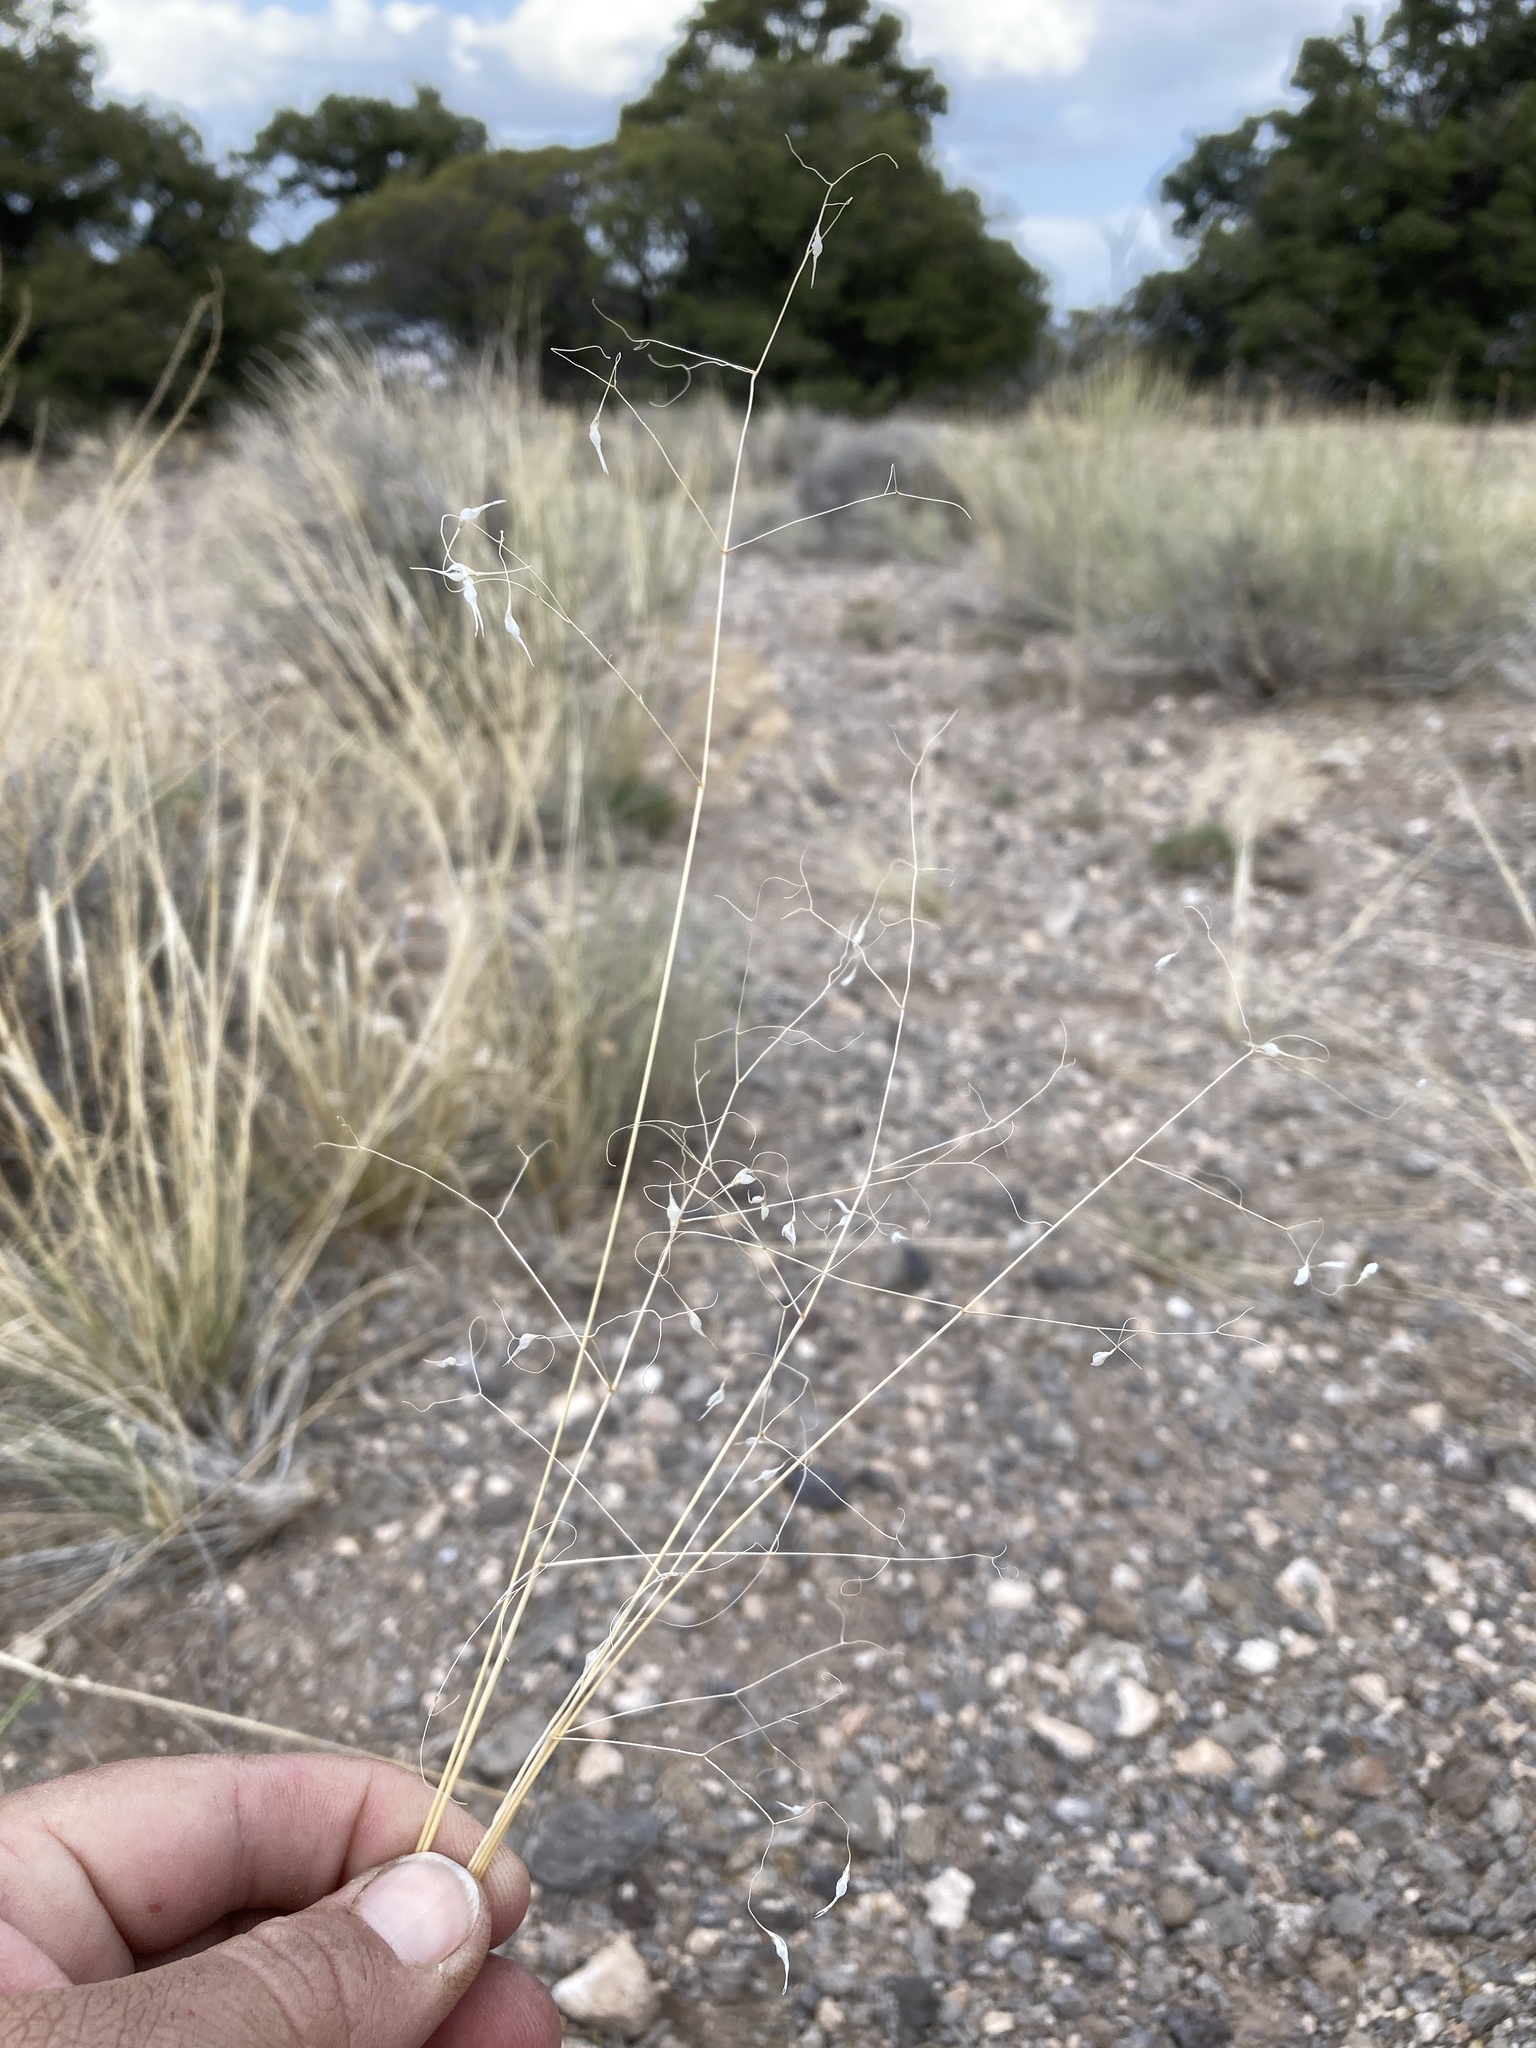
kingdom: Plantae
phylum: Tracheophyta
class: Liliopsida
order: Poales
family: Poaceae
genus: Eriocoma
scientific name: Eriocoma hymenoides
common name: Indian mountain ricegrass
